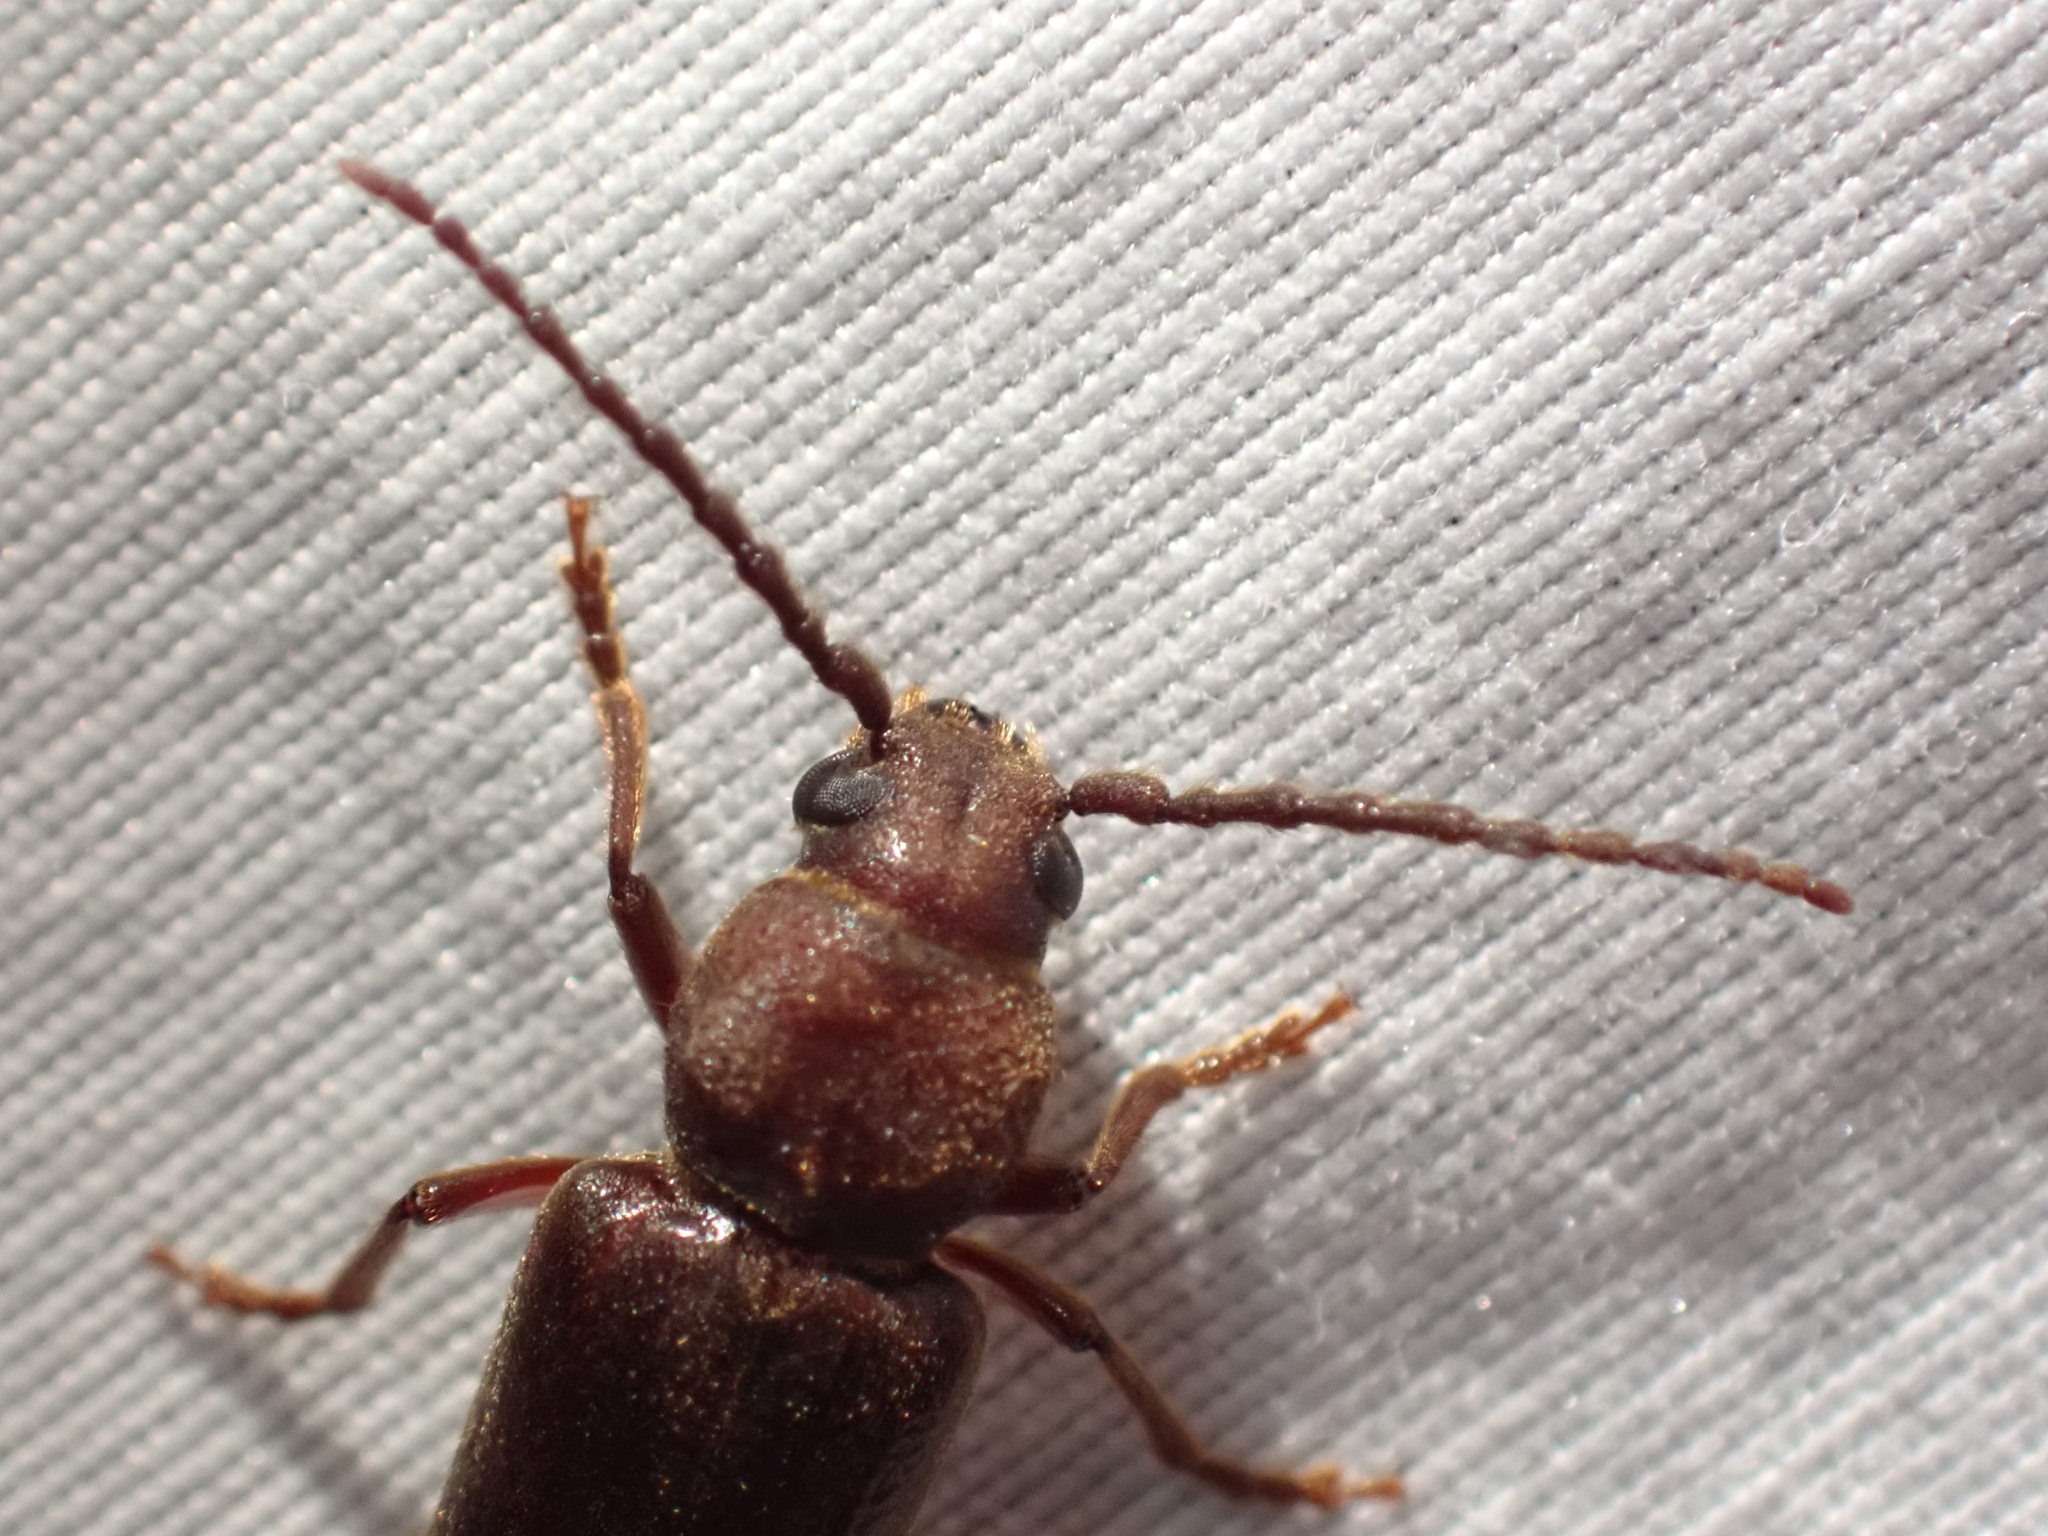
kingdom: Animalia
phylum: Arthropoda
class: Insecta
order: Coleoptera
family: Cerambycidae
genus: Megasemum
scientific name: Megasemum asperum
